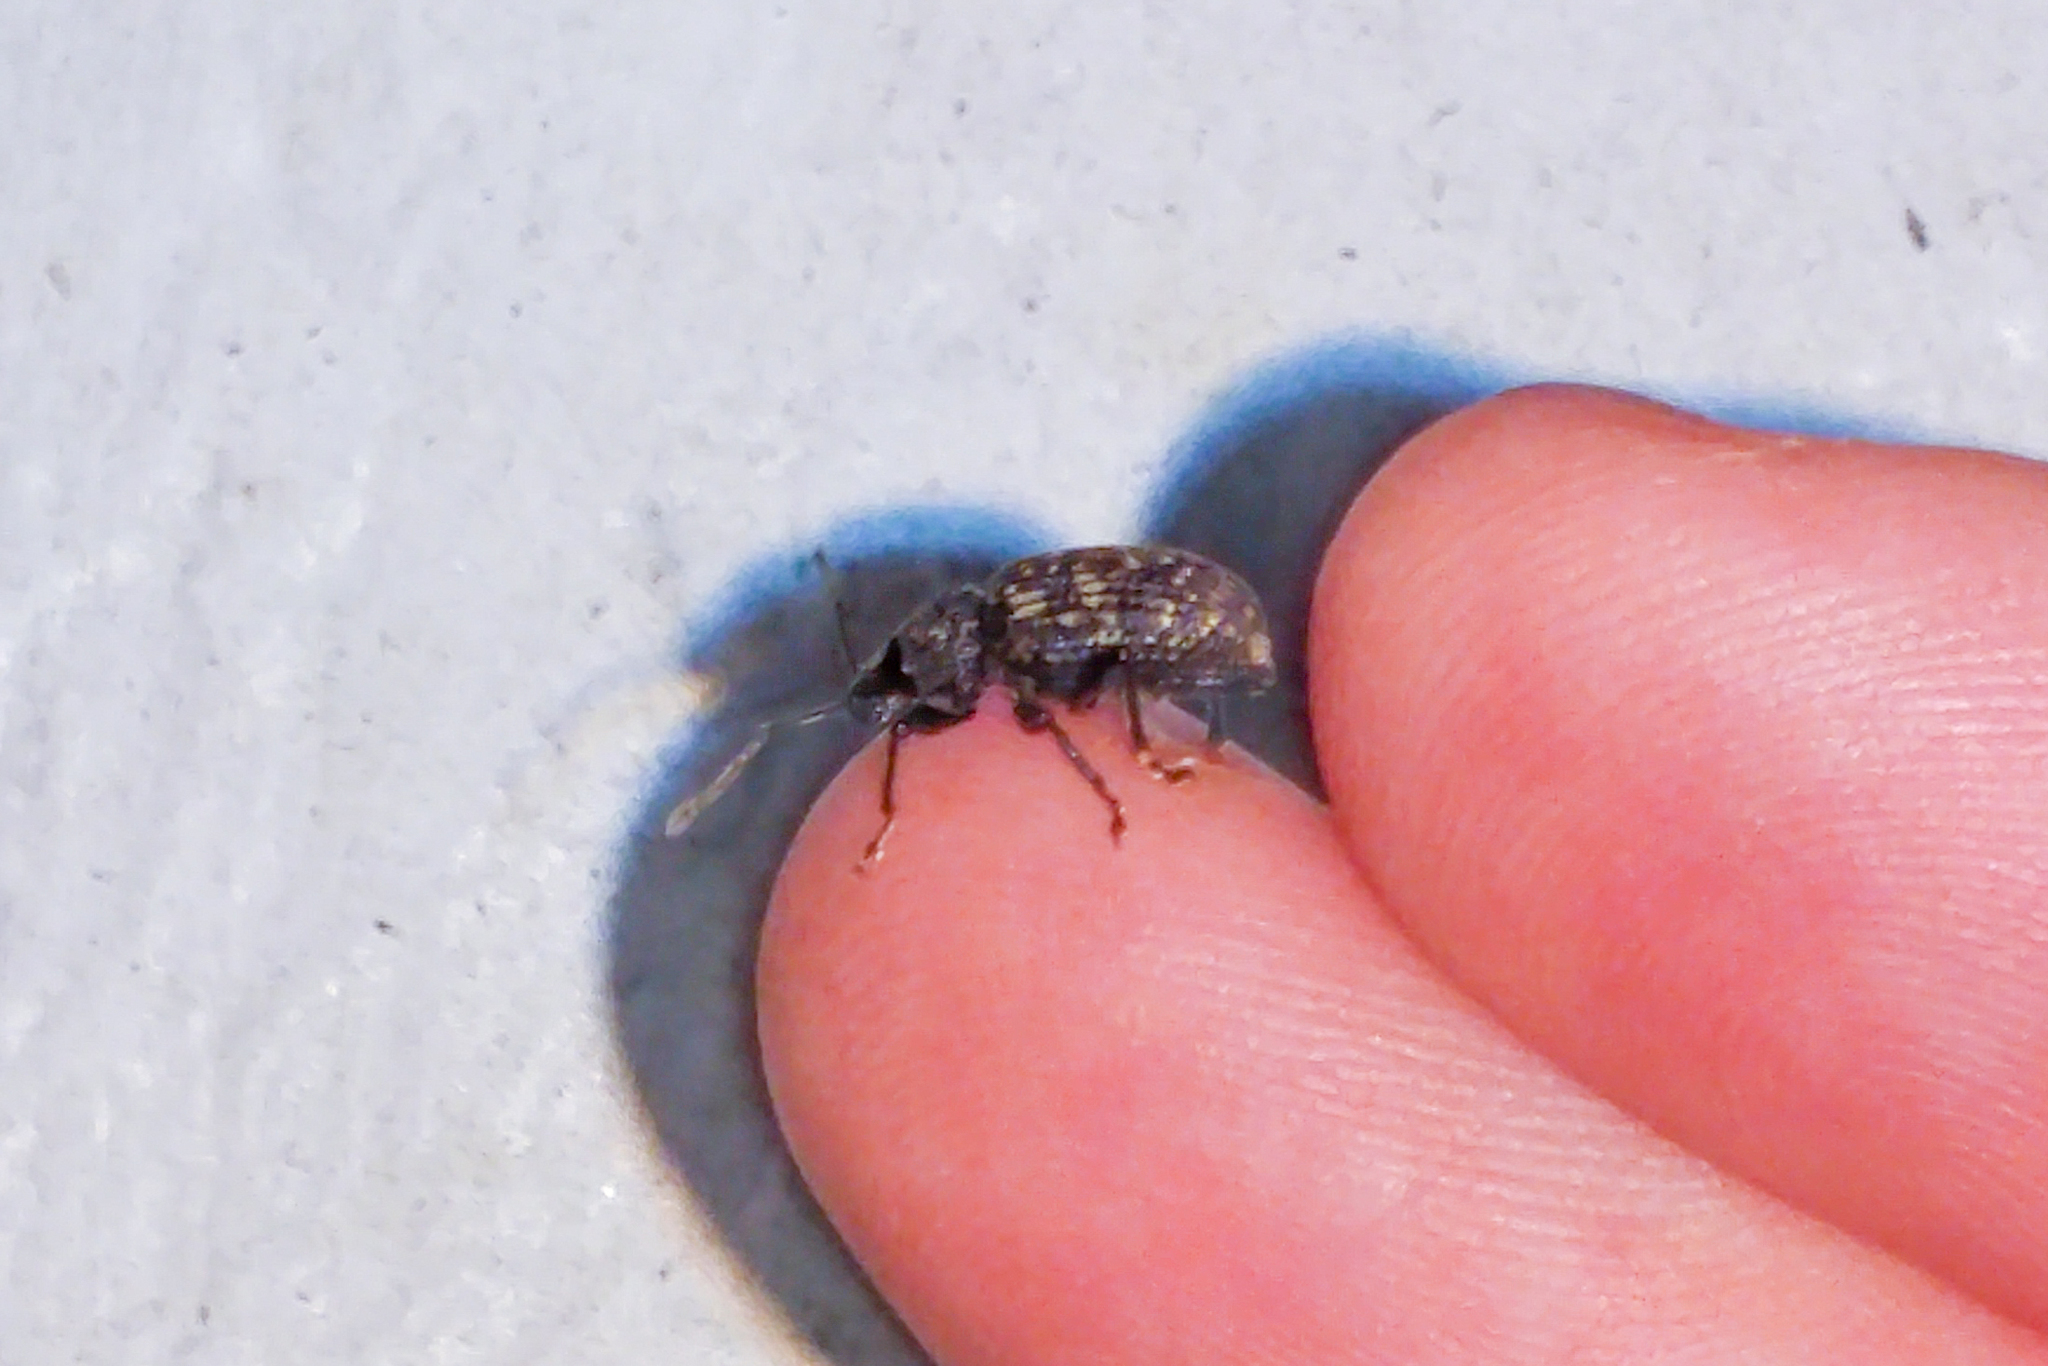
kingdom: Animalia
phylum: Arthropoda
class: Insecta
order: Coleoptera
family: Curculionidae
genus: Otiorhynchus
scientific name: Otiorhynchus sulcatus
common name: Black vine weevil
